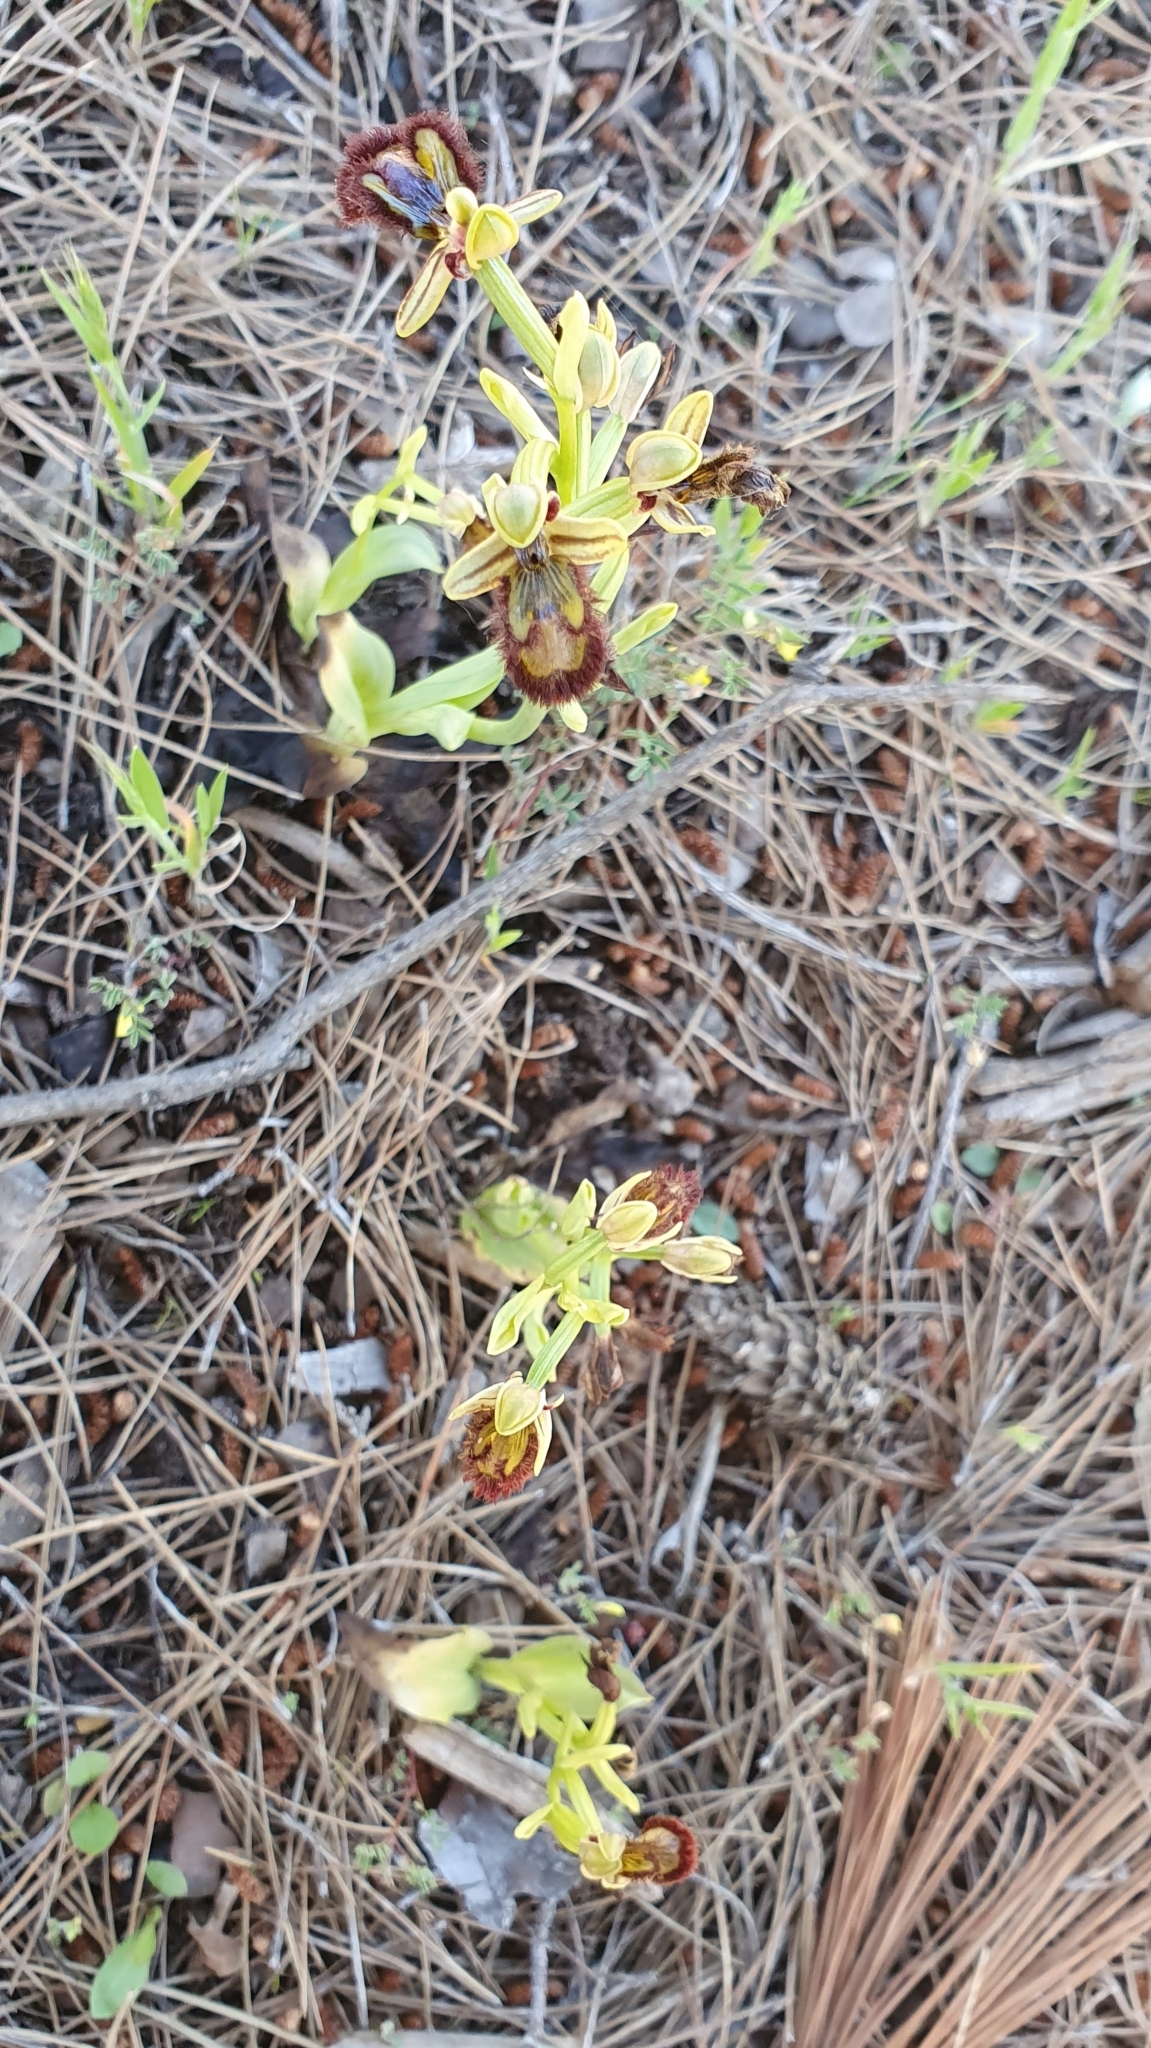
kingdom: Plantae
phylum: Tracheophyta
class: Liliopsida
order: Asparagales
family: Orchidaceae
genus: Ophrys
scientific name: Ophrys speculum
